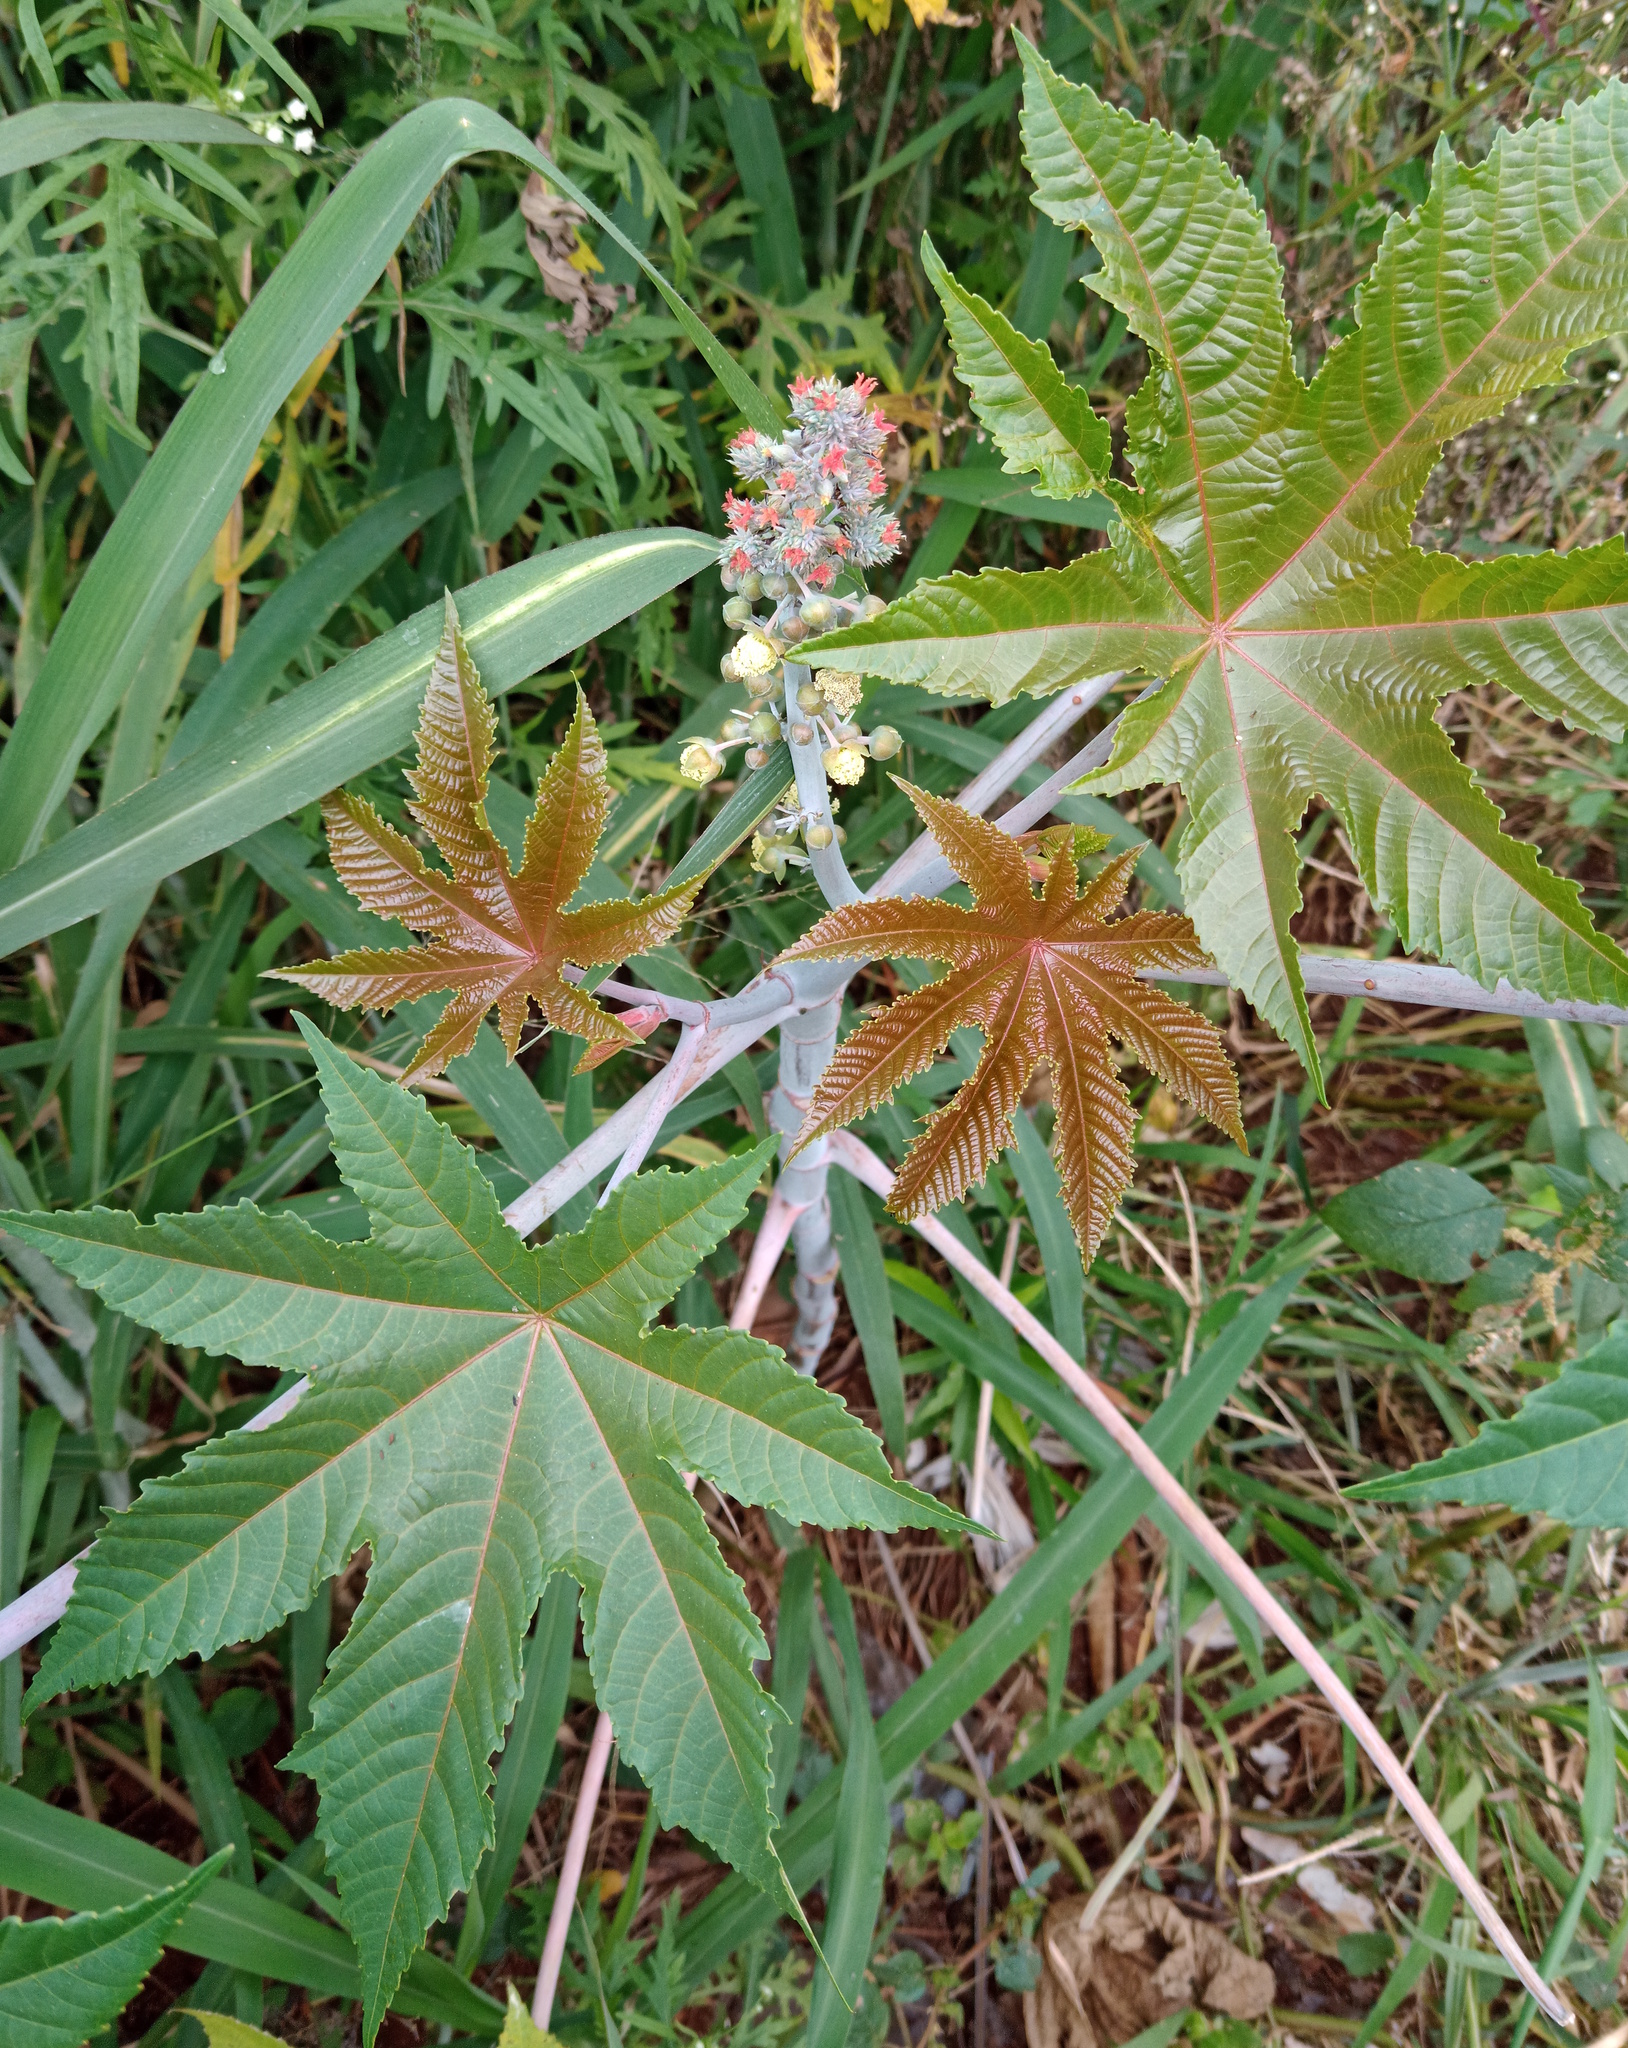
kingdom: Plantae
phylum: Tracheophyta
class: Magnoliopsida
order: Malpighiales
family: Euphorbiaceae
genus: Ricinus
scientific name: Ricinus communis
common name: Castor-oil-plant
